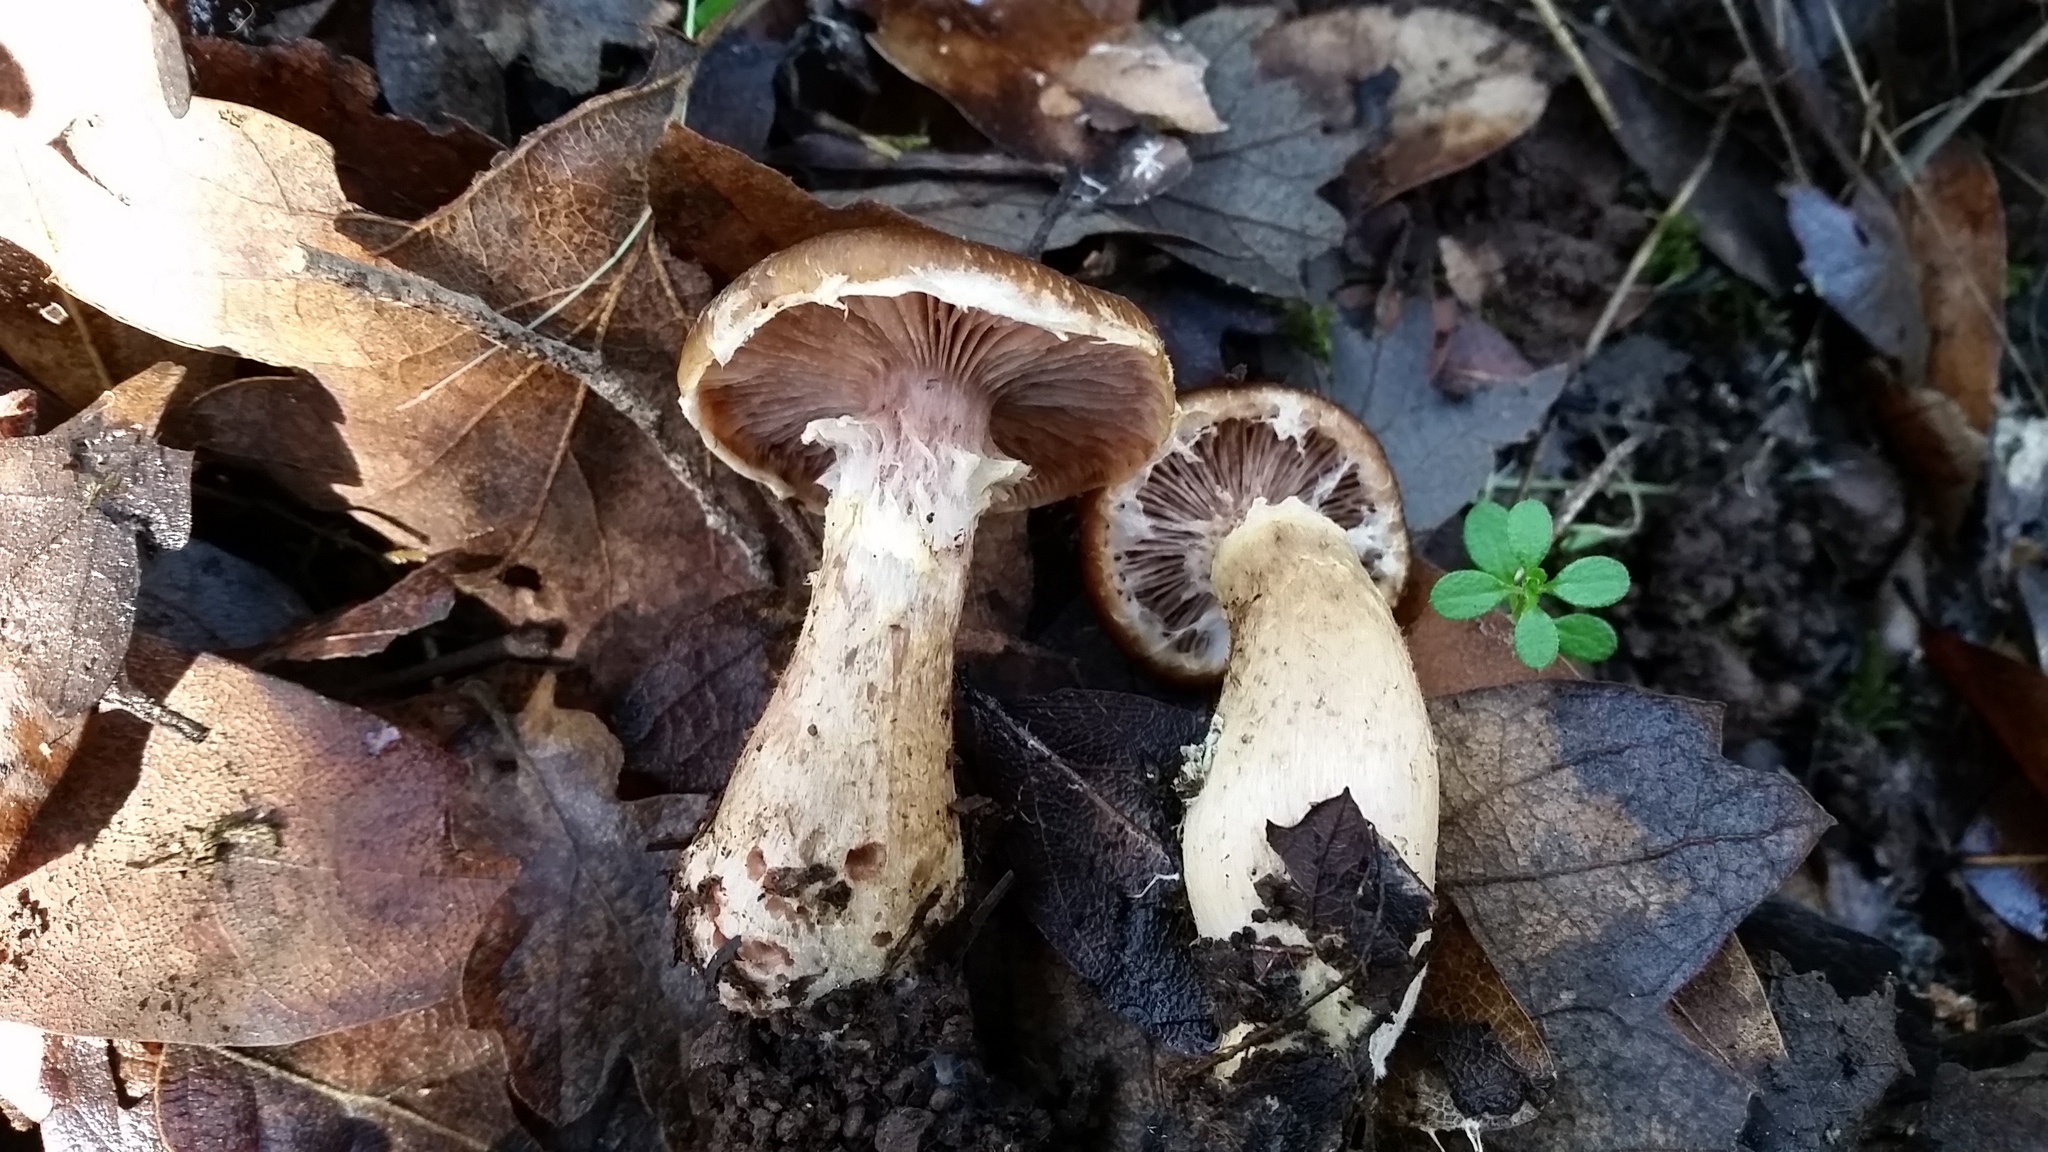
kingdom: Fungi
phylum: Basidiomycota
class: Agaricomycetes
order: Agaricales
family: Physalacriaceae
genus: Armillaria
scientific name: Armillaria sinapina
